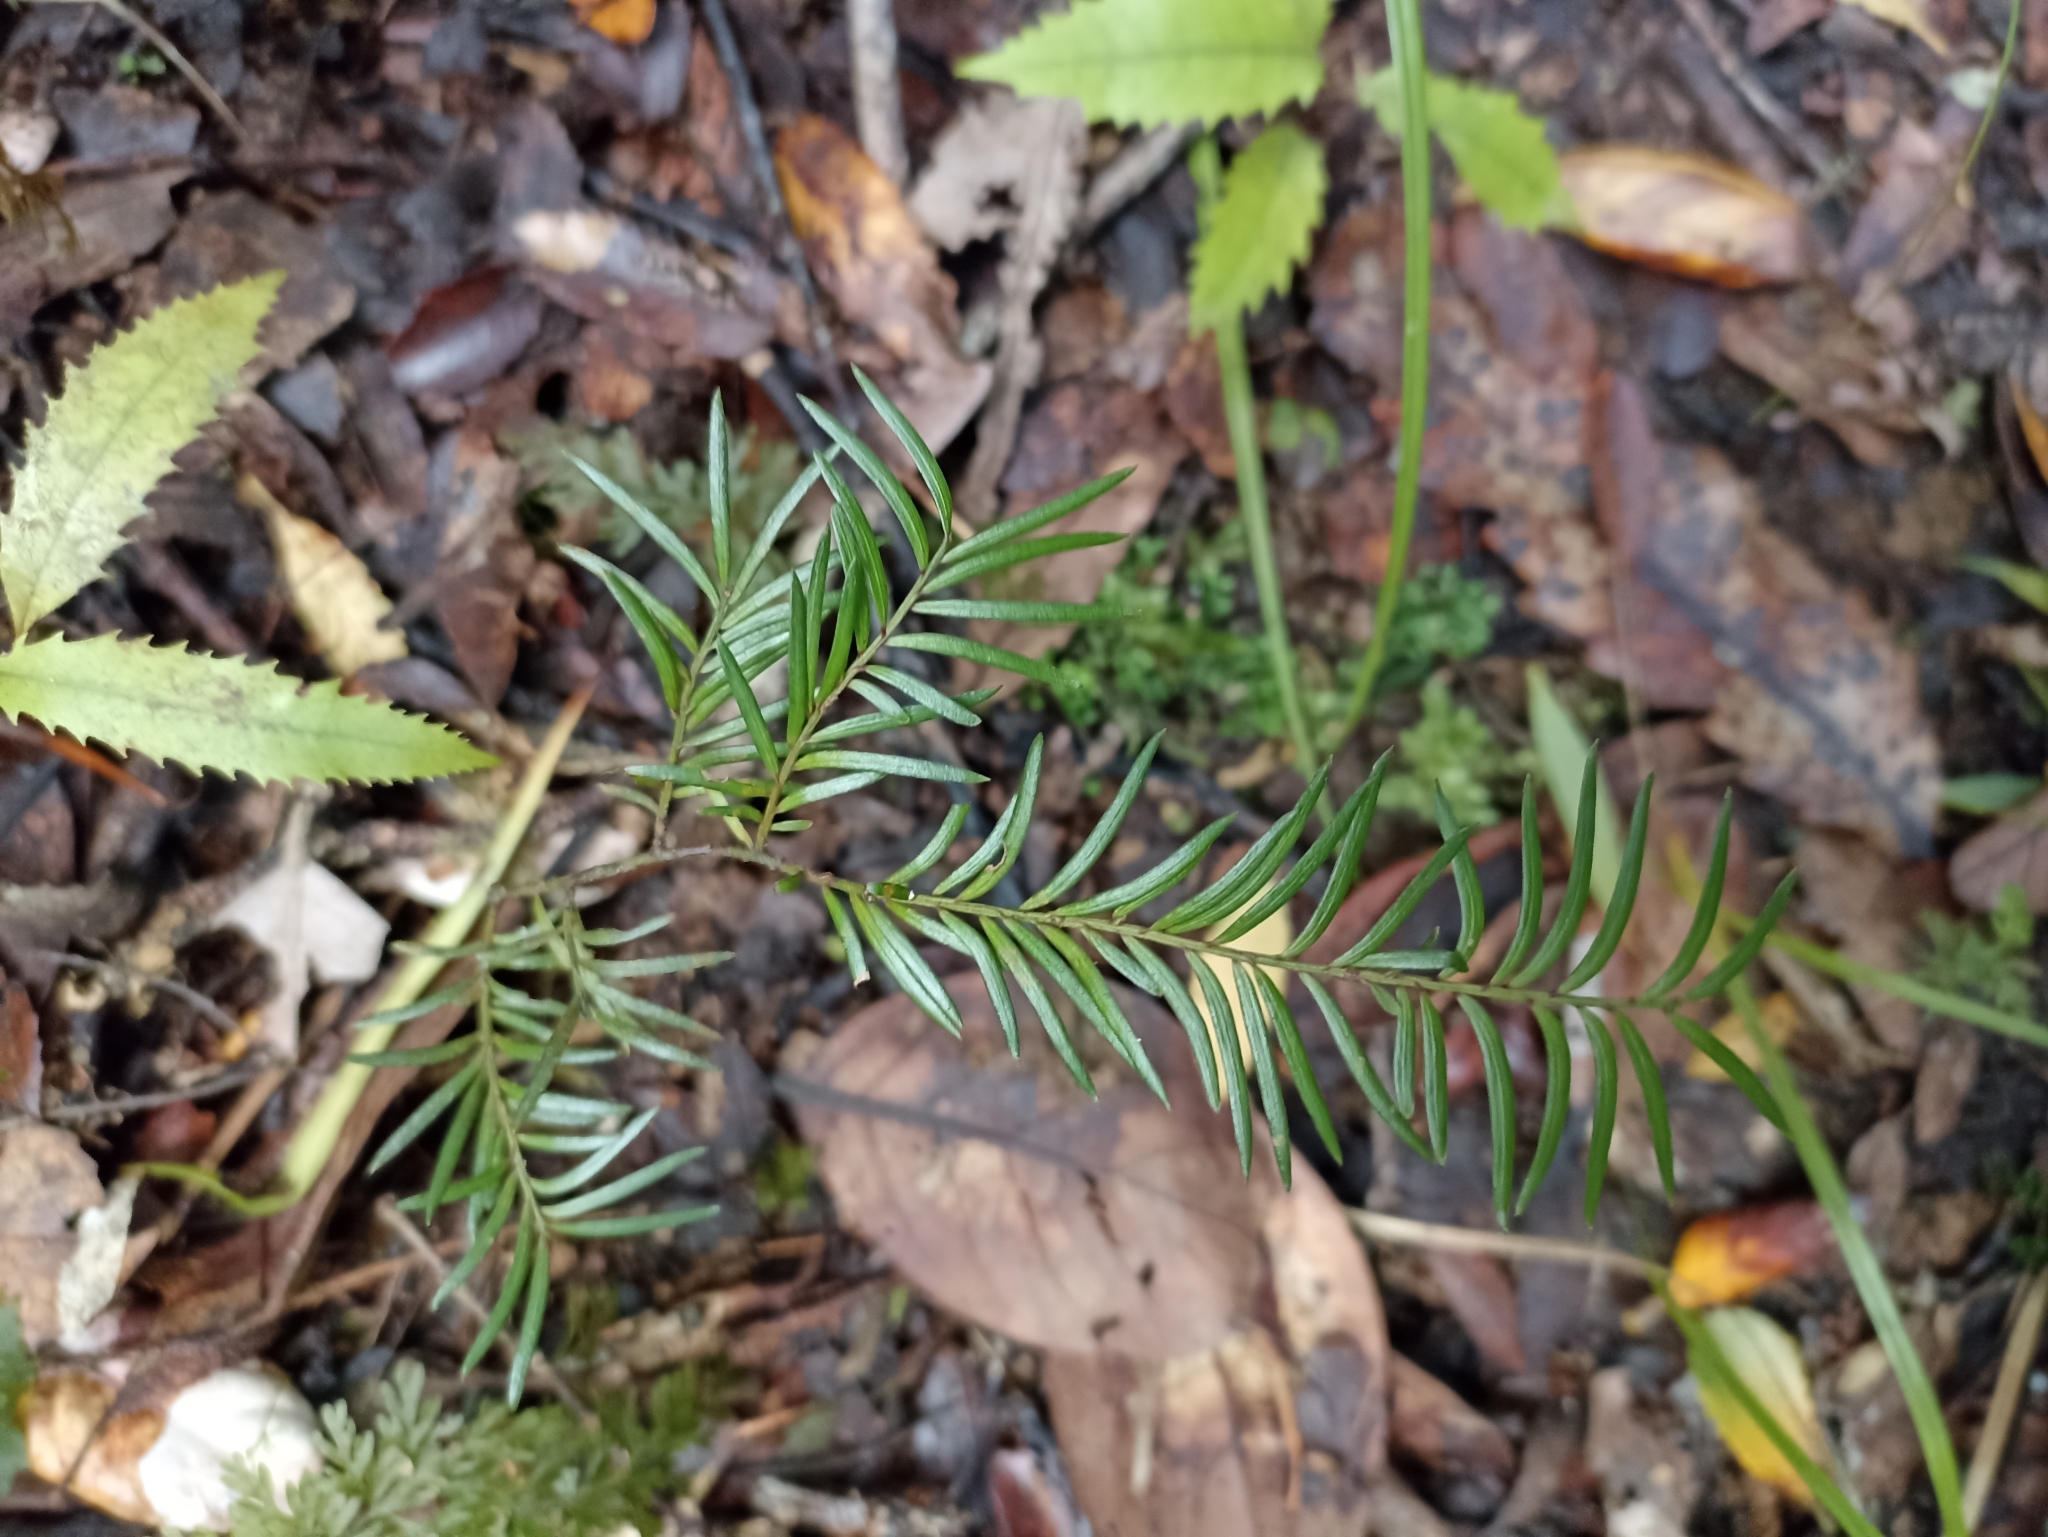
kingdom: Plantae
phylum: Tracheophyta
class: Pinopsida
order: Pinales
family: Podocarpaceae
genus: Prumnopitys
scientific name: Prumnopitys ferruginea
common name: Brown pine
